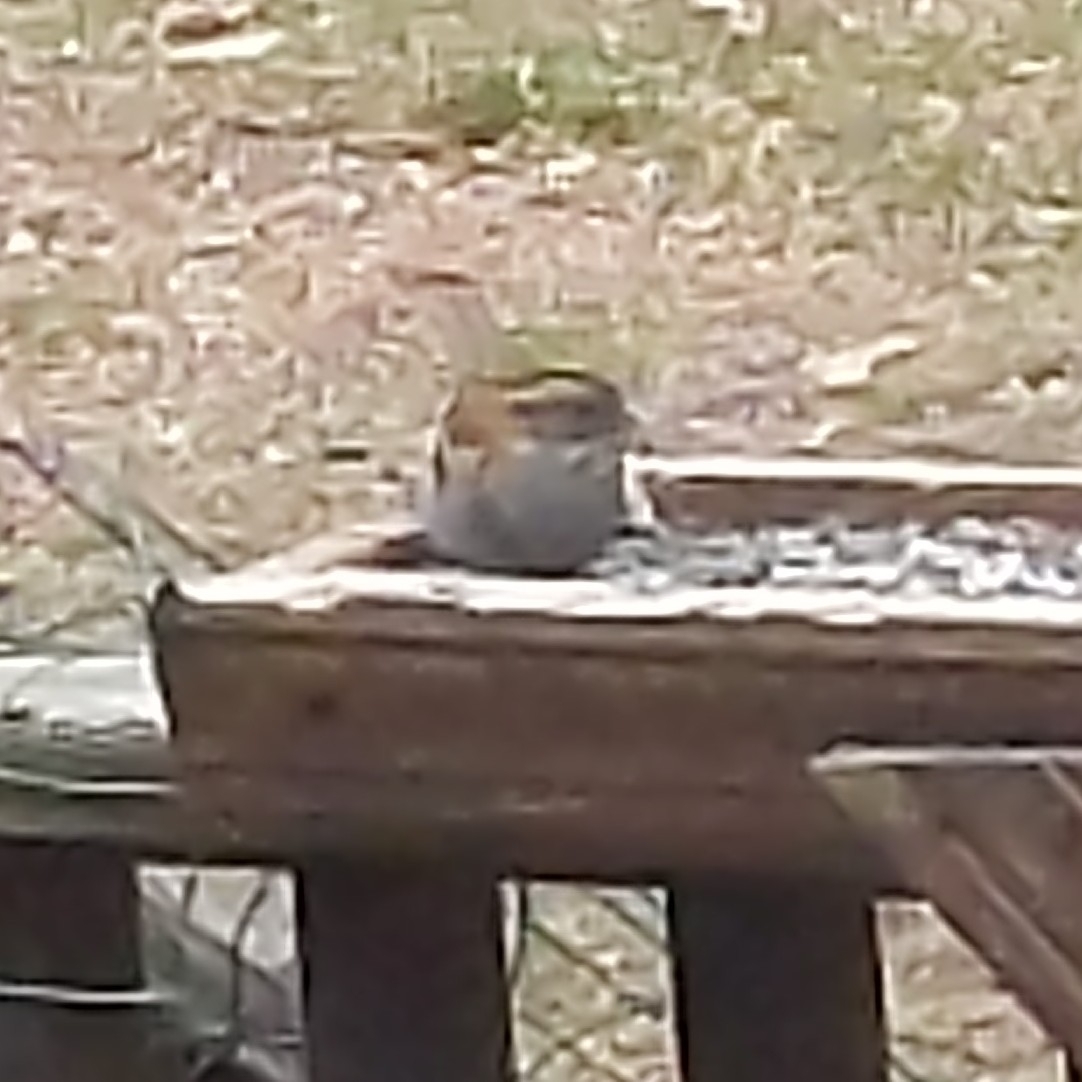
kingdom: Animalia
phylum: Chordata
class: Aves
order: Passeriformes
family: Passerellidae
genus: Zonotrichia
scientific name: Zonotrichia albicollis
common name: White-throated sparrow
